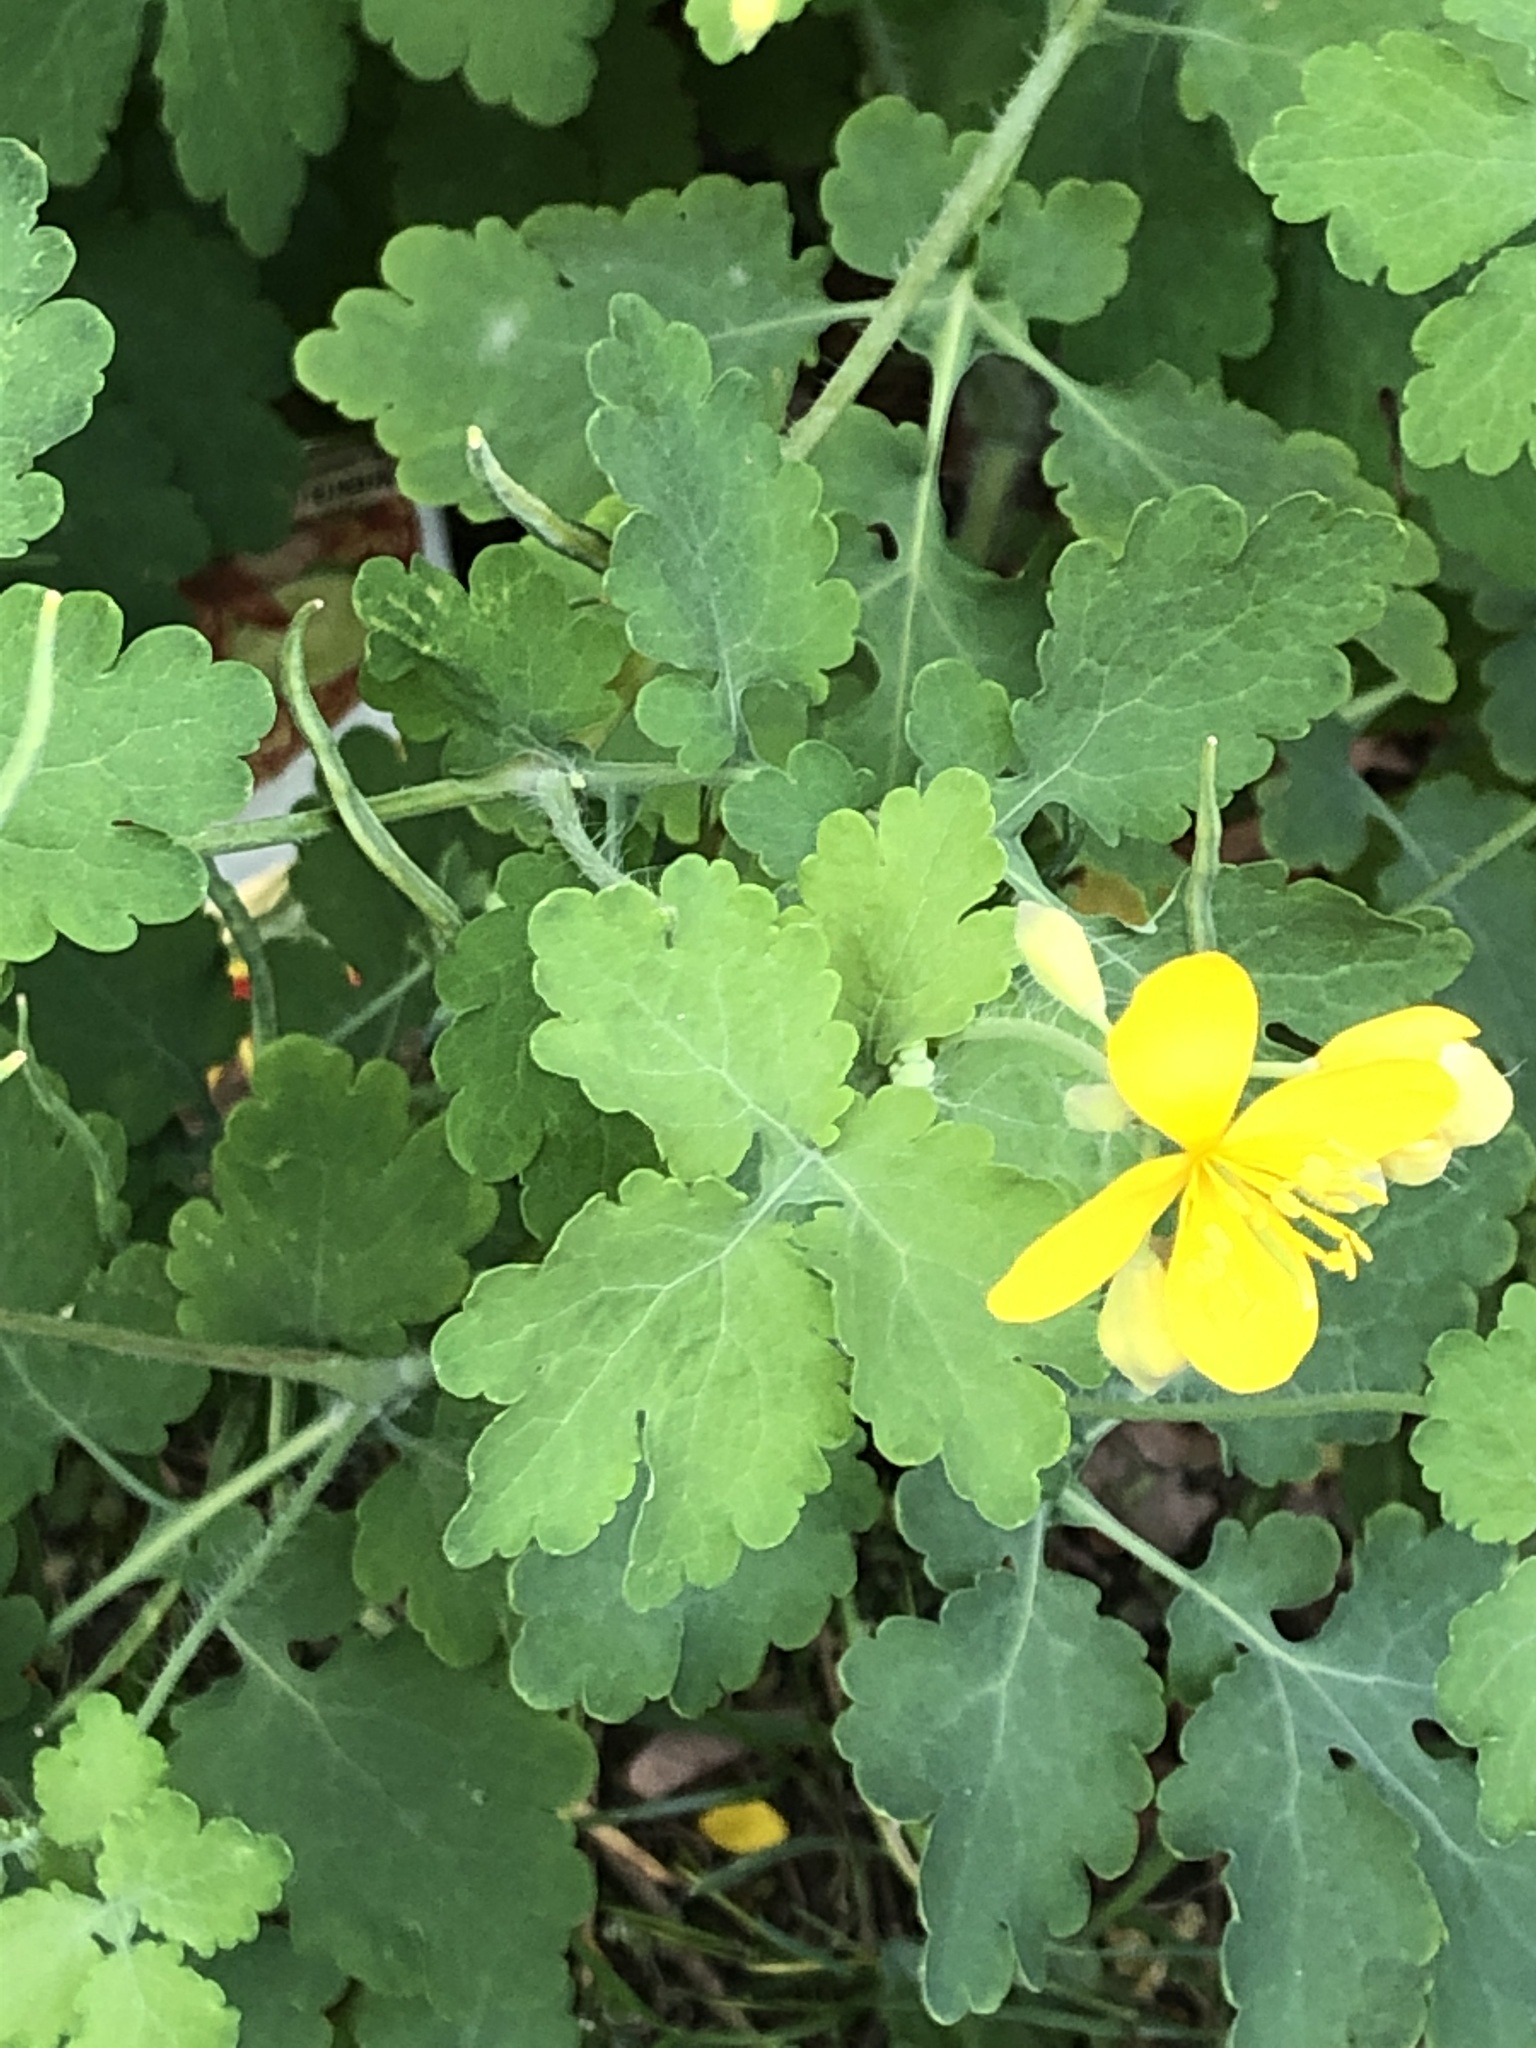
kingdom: Plantae
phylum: Tracheophyta
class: Magnoliopsida
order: Ranunculales
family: Papaveraceae
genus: Chelidonium
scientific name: Chelidonium majus
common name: Greater celandine
